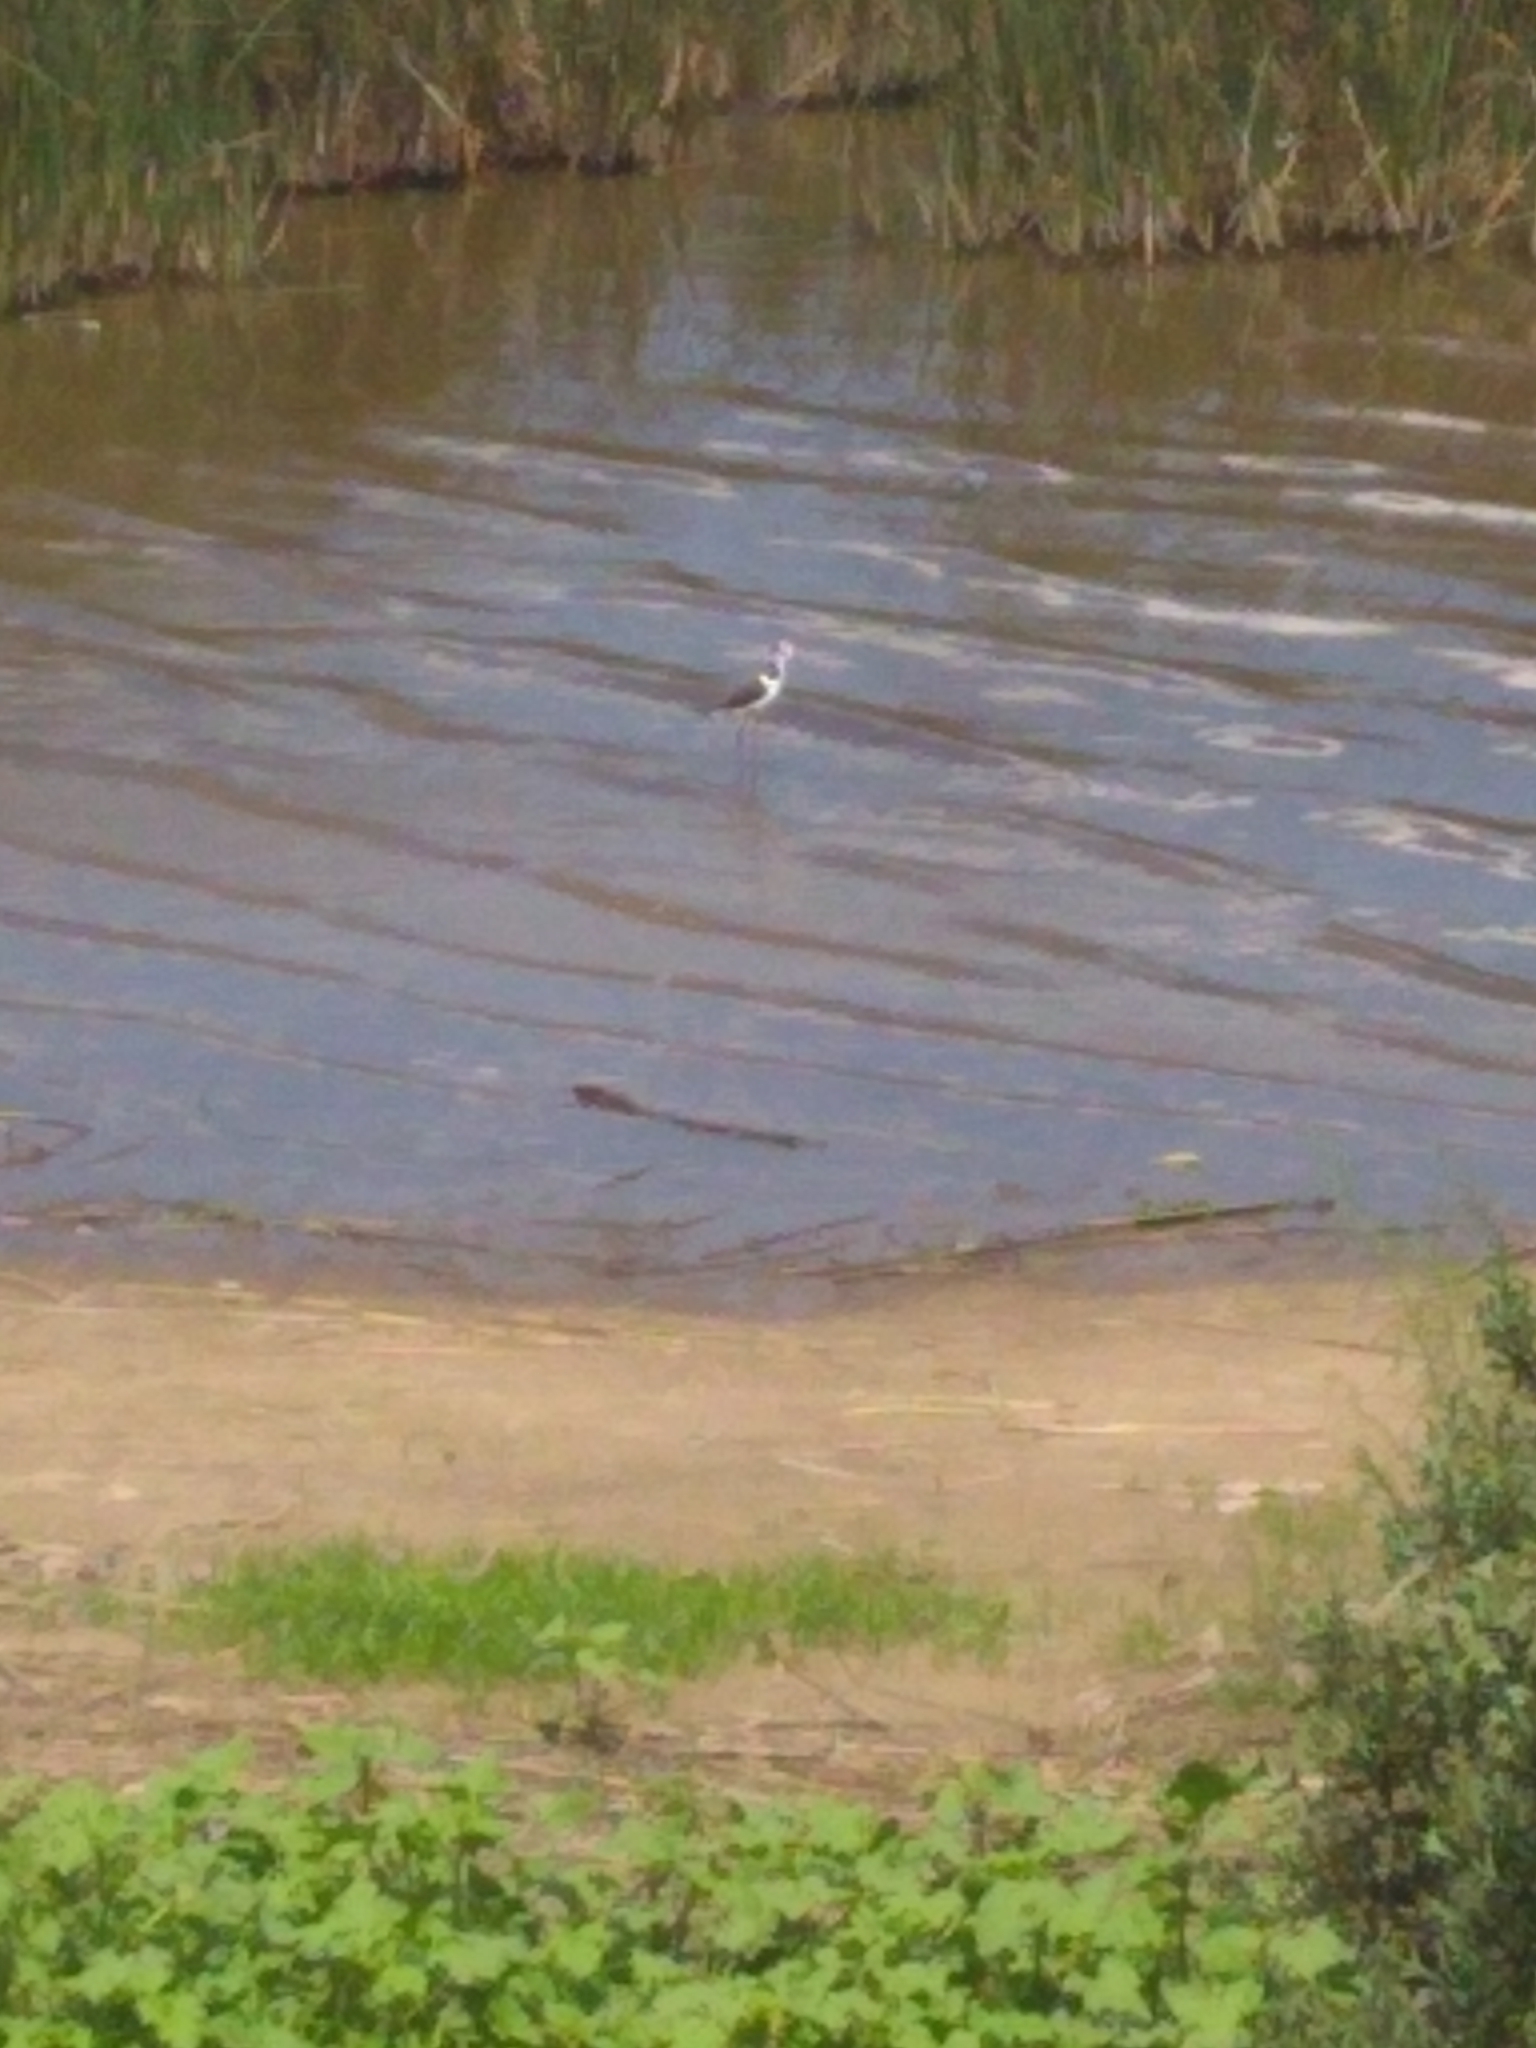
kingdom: Animalia
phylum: Chordata
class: Aves
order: Charadriiformes
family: Recurvirostridae
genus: Himantopus
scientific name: Himantopus mexicanus
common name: Black-necked stilt
